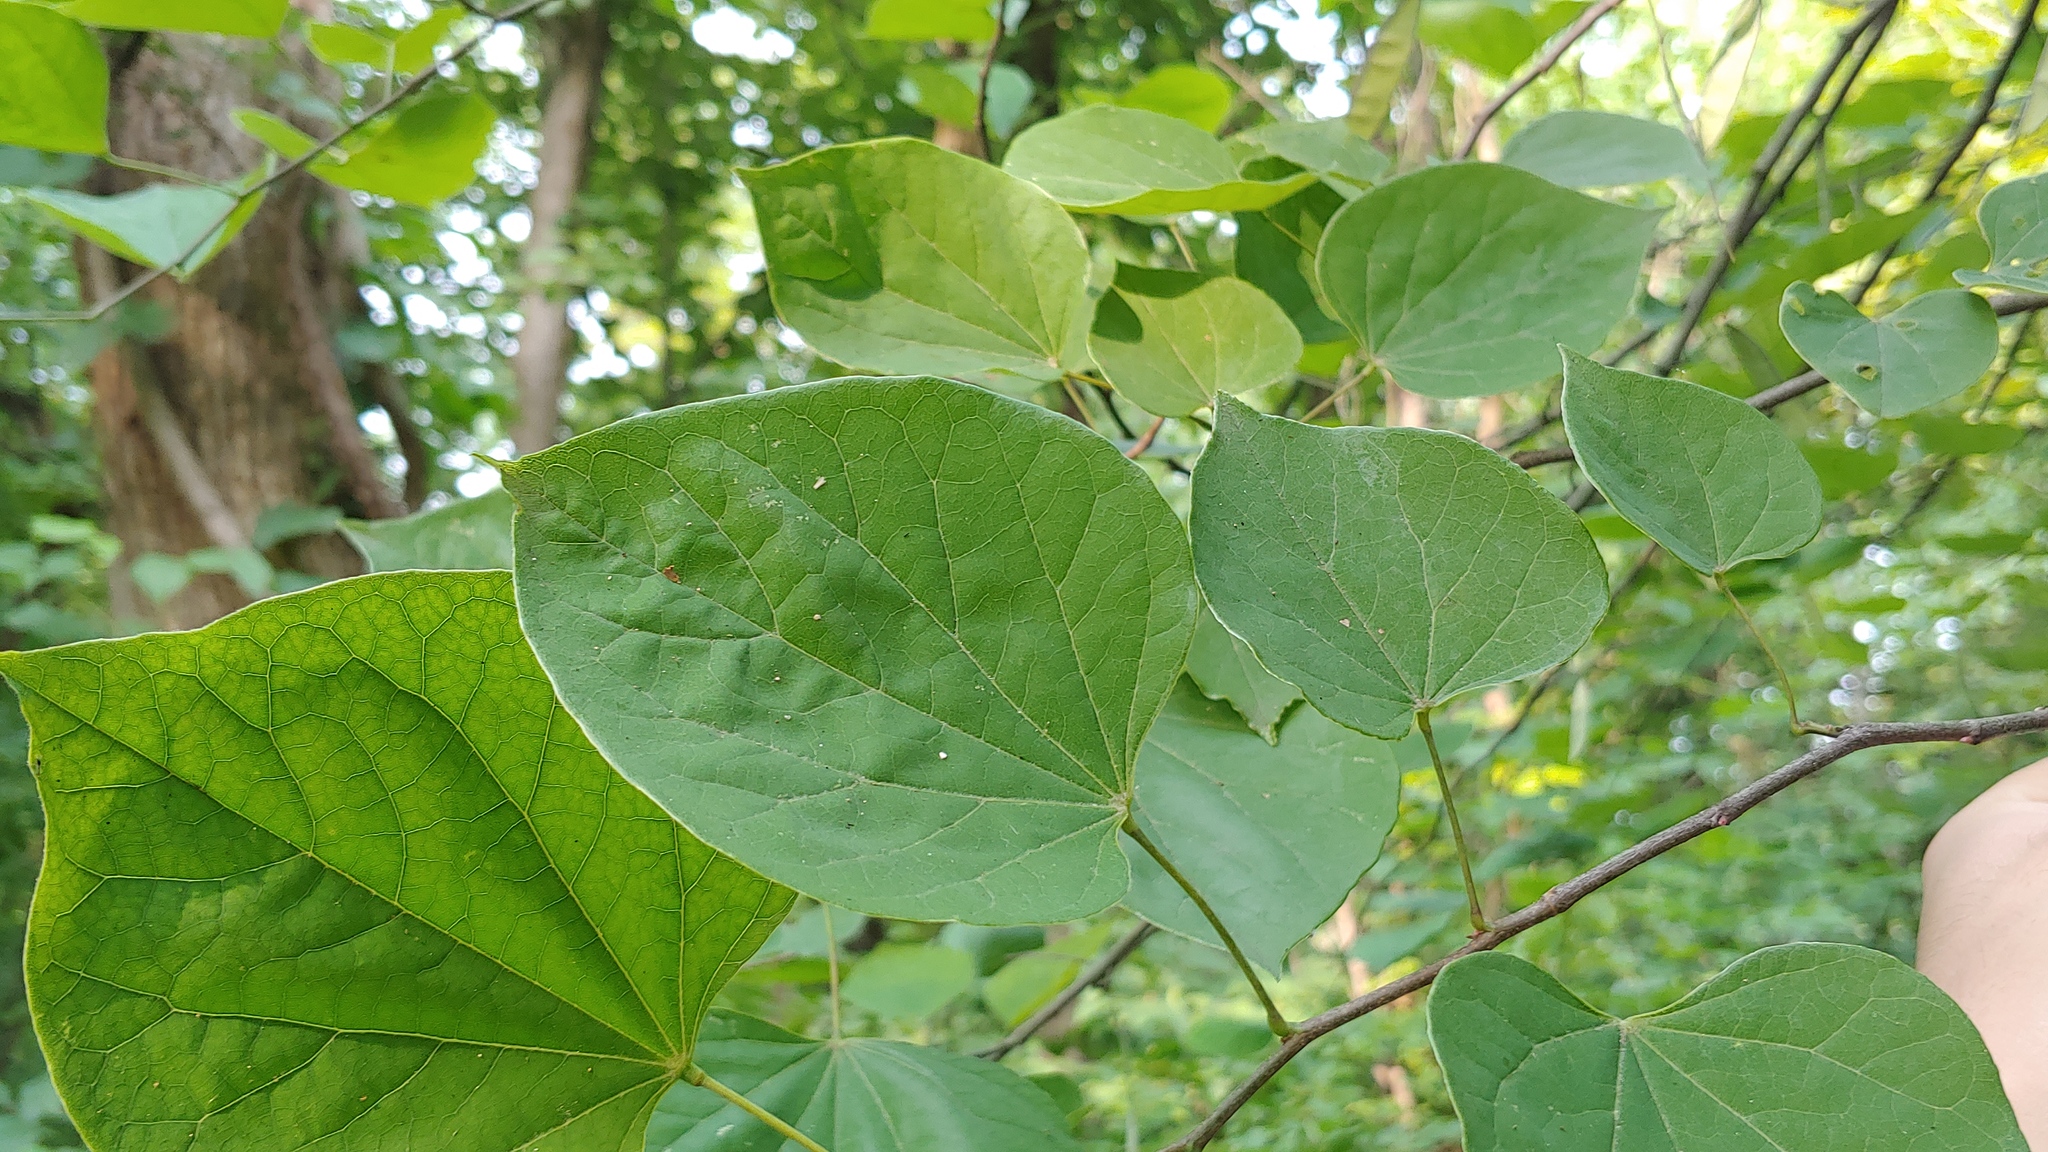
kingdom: Plantae
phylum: Tracheophyta
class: Magnoliopsida
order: Fabales
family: Fabaceae
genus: Cercis
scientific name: Cercis canadensis
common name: Eastern redbud
